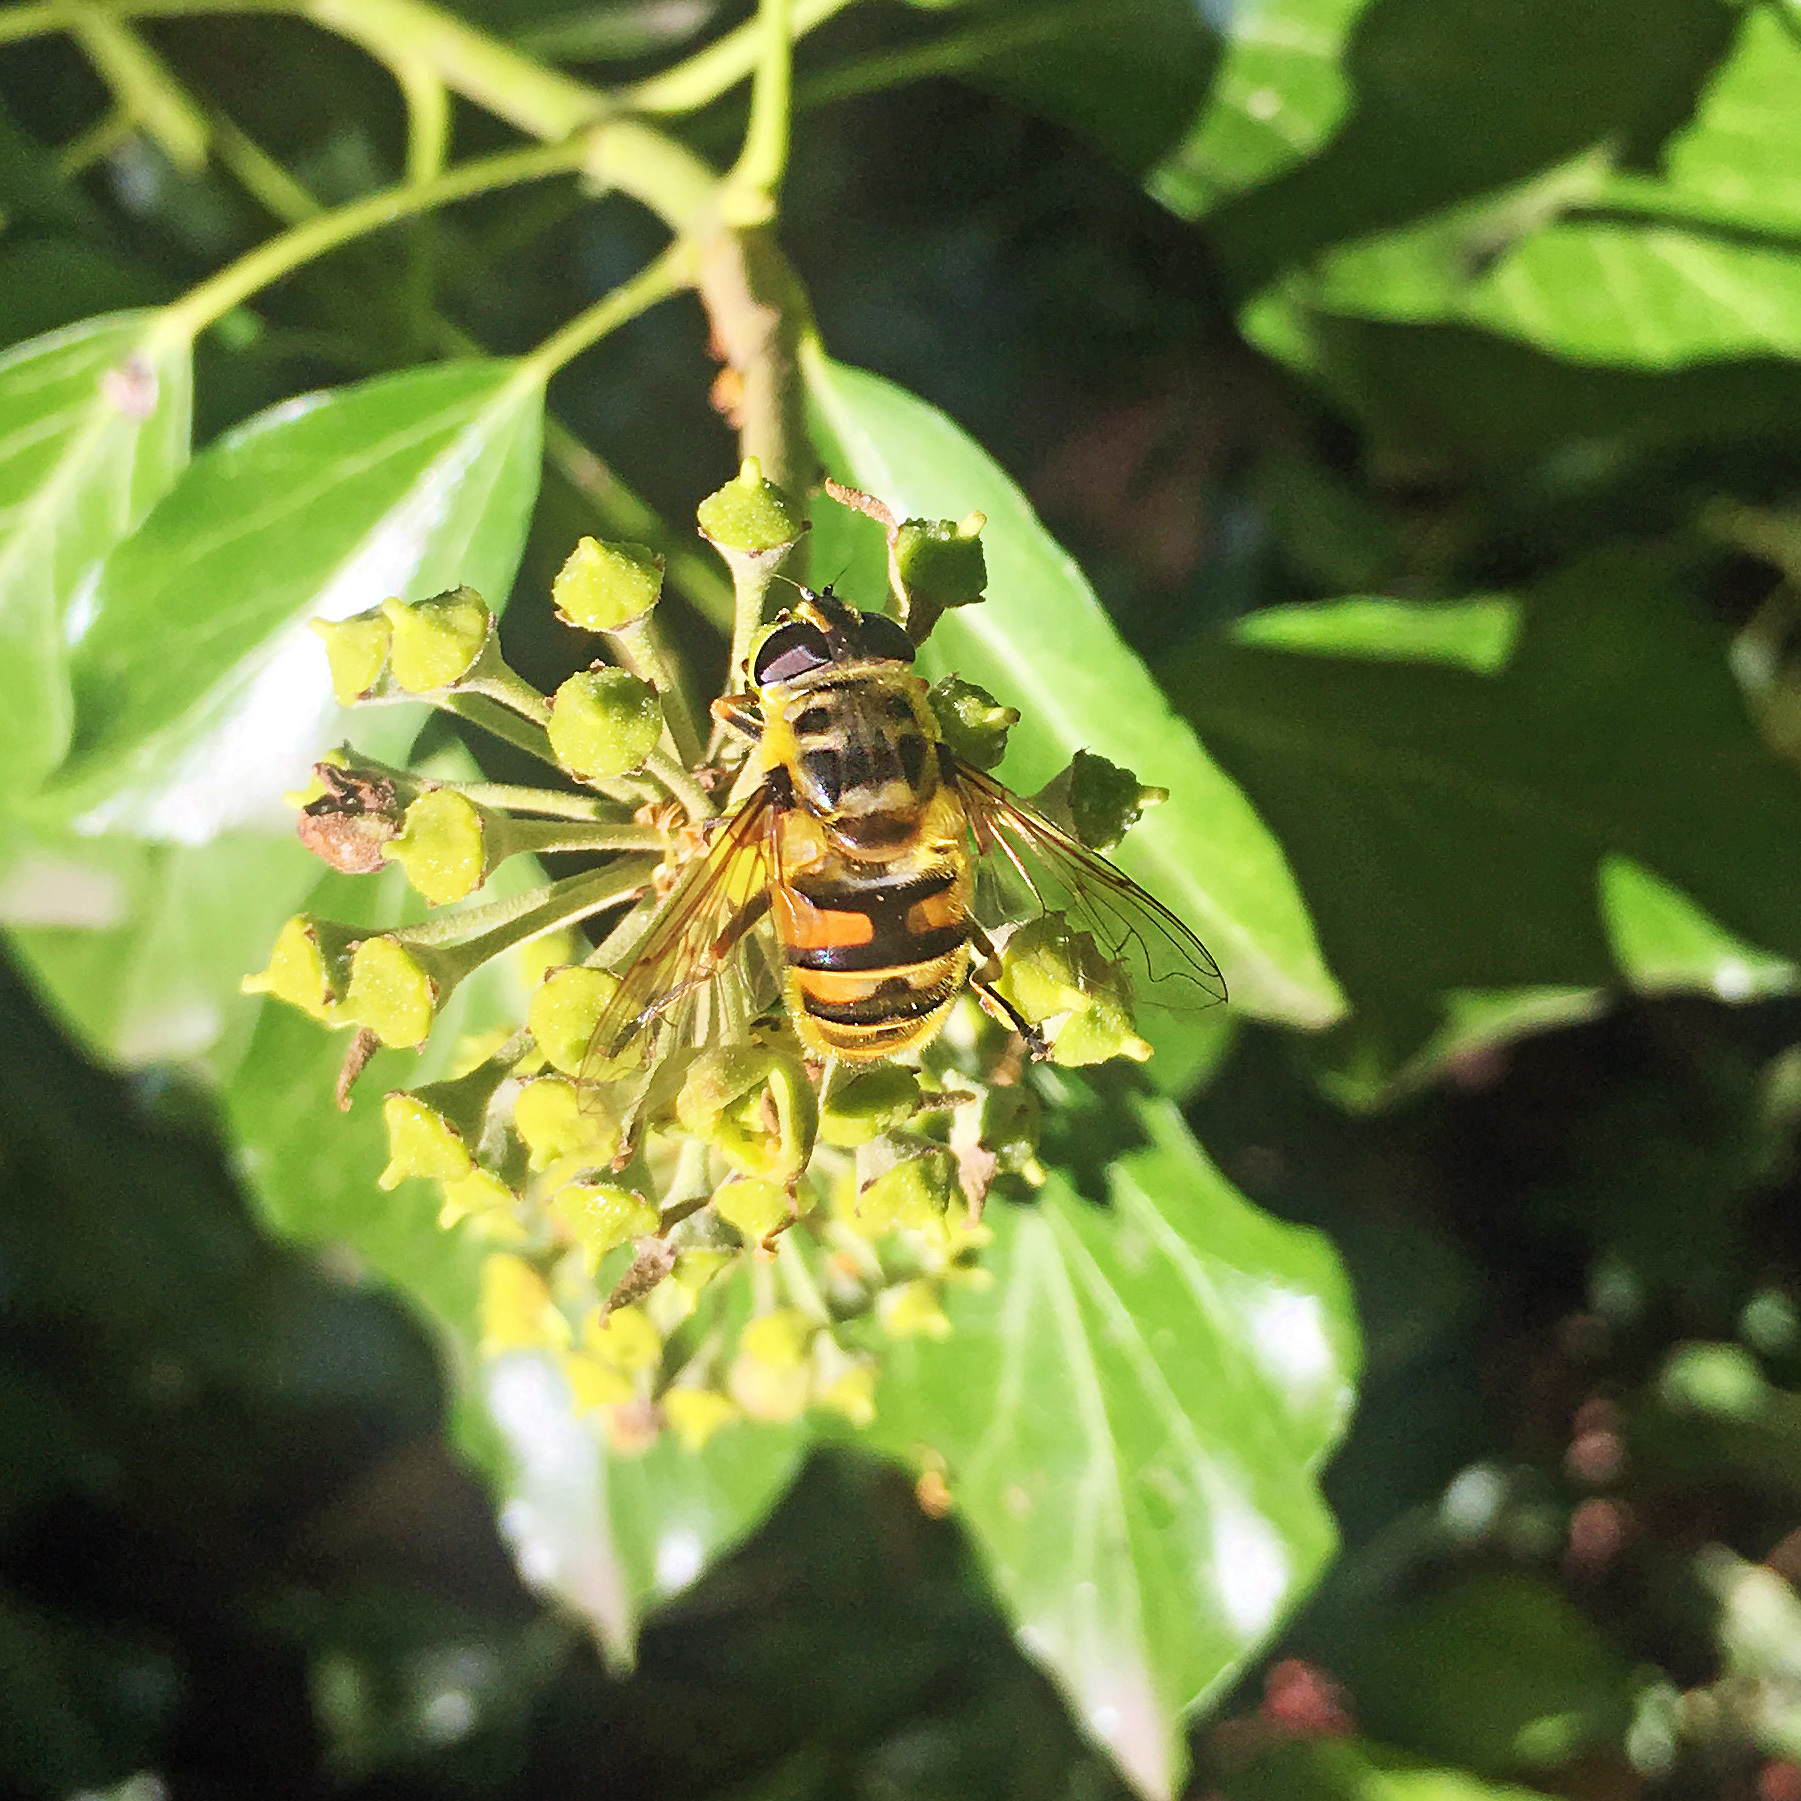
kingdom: Animalia
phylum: Arthropoda
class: Insecta
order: Diptera
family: Syrphidae
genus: Myathropa
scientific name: Myathropa florea
